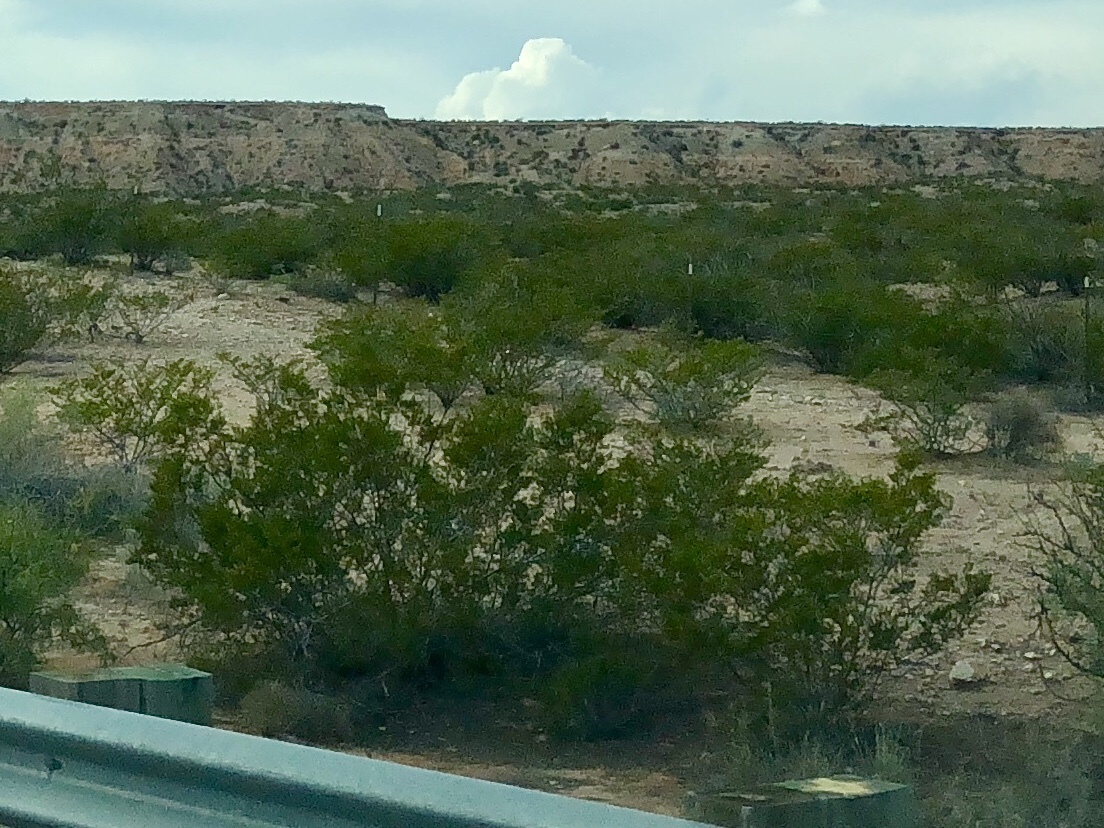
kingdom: Plantae
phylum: Tracheophyta
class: Magnoliopsida
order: Zygophyllales
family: Zygophyllaceae
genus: Larrea
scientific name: Larrea tridentata
